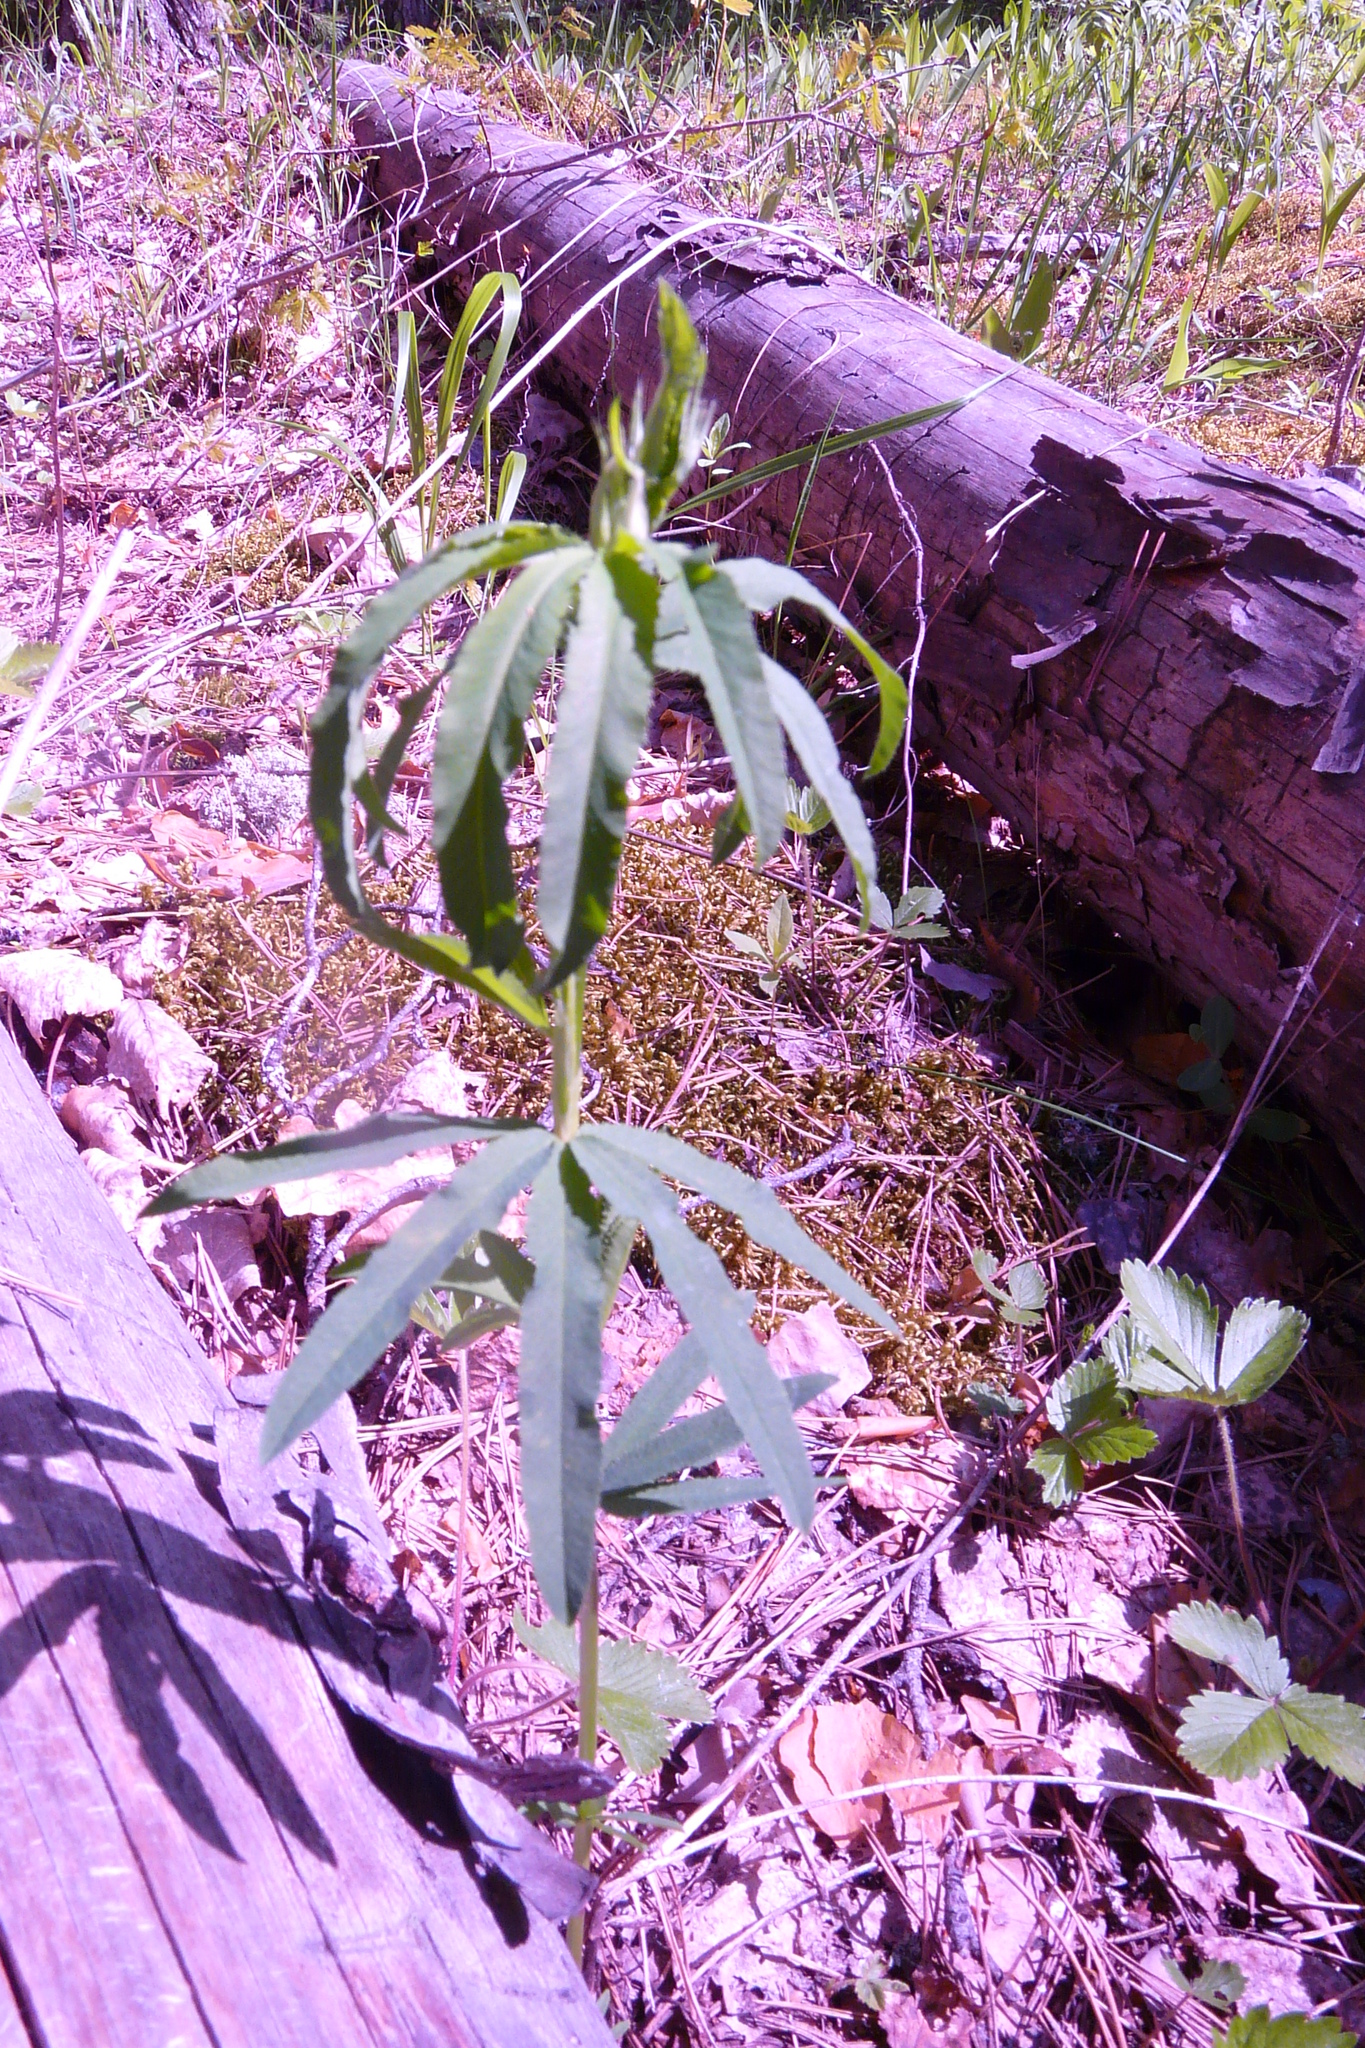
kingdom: Plantae
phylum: Tracheophyta
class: Magnoliopsida
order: Fabales
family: Fabaceae
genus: Trifolium
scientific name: Trifolium lupinaster
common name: Lupine clover
